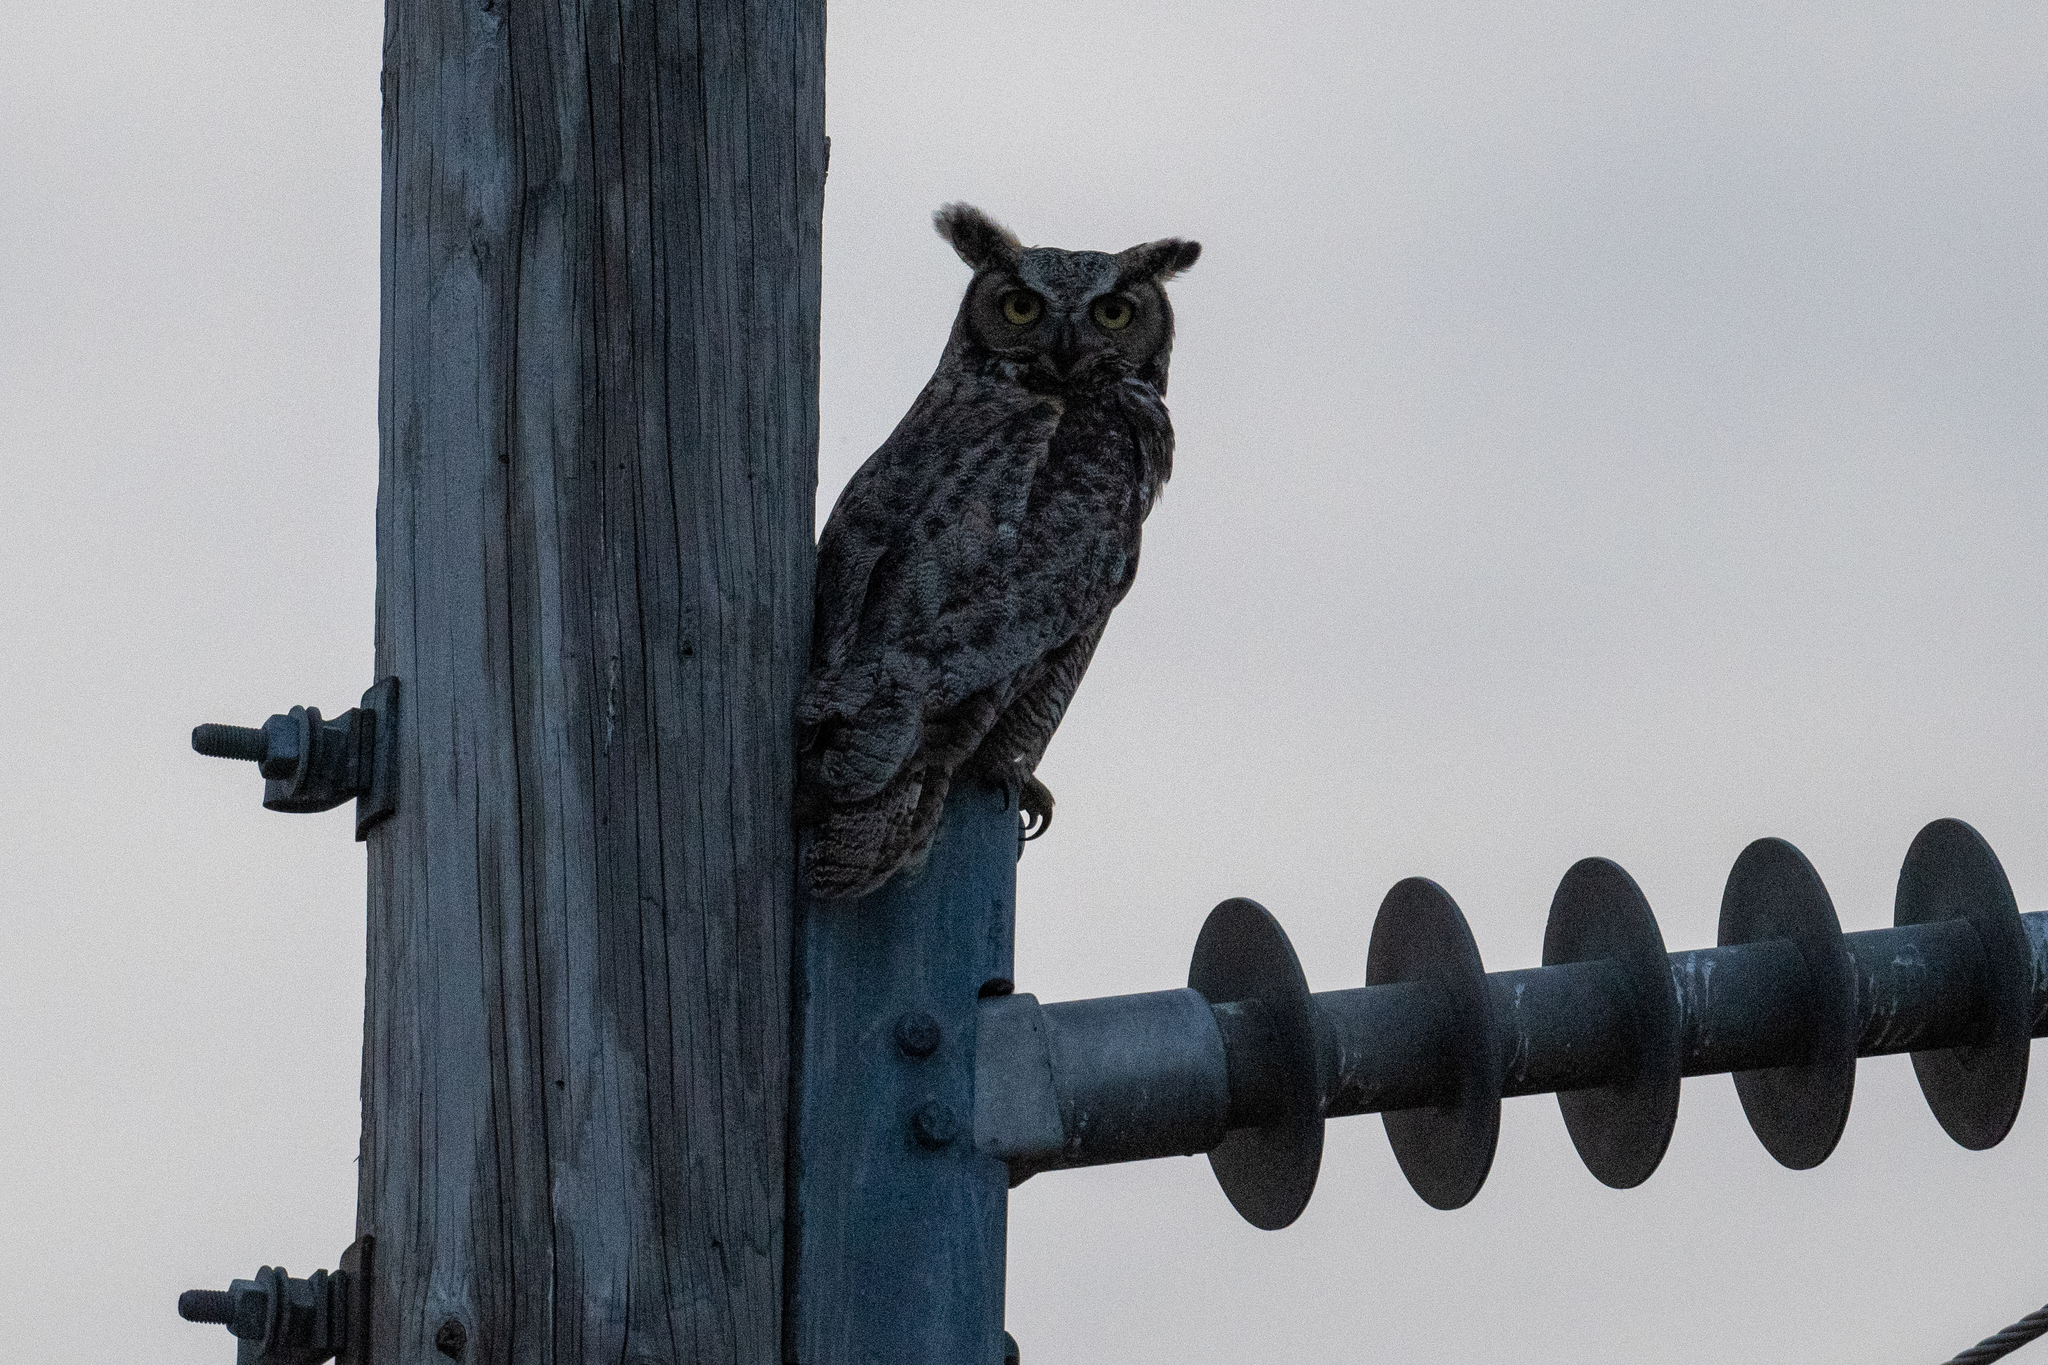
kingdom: Animalia
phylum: Chordata
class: Aves
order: Strigiformes
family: Strigidae
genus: Bubo
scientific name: Bubo virginianus
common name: Great horned owl
